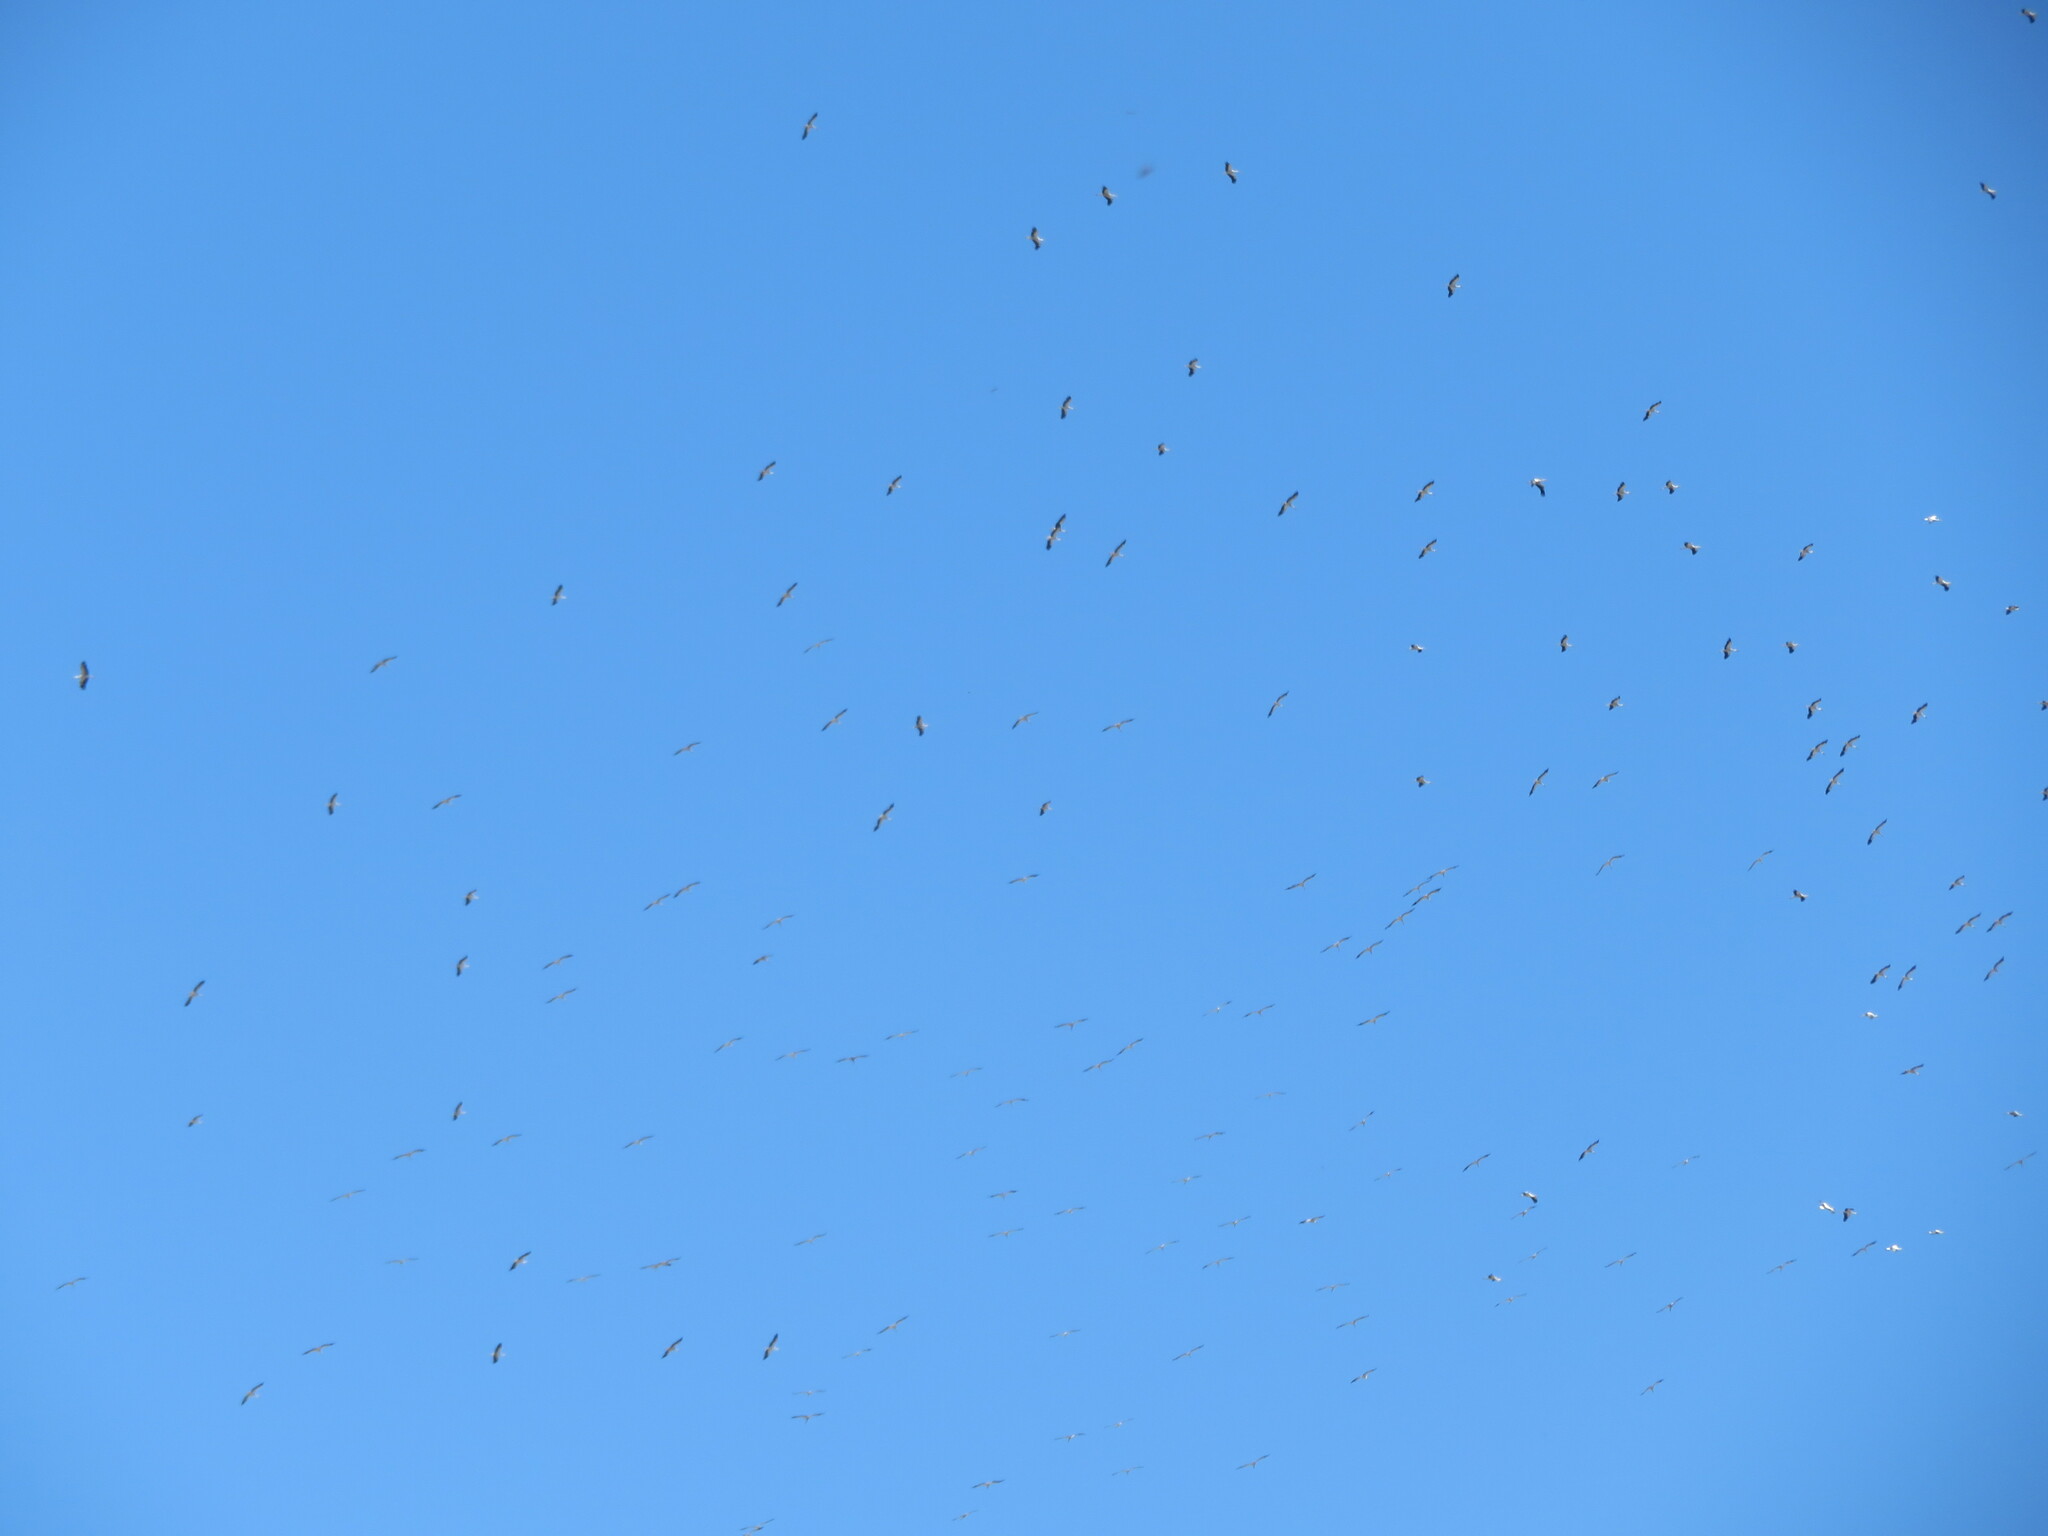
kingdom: Animalia
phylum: Chordata
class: Aves
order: Ciconiiformes
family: Ciconiidae
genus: Ciconia
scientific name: Ciconia ciconia
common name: White stork
